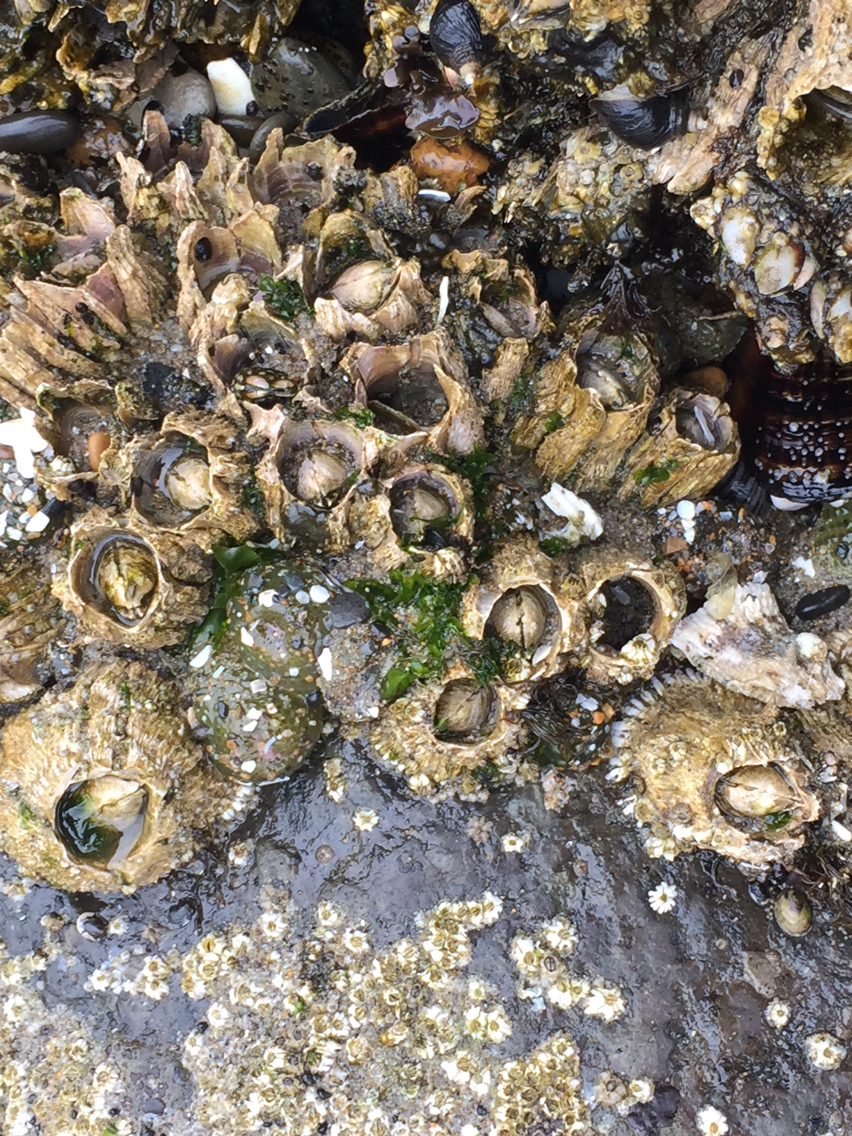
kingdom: Animalia
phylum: Arthropoda
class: Maxillopoda
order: Sessilia
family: Archaeobalanidae
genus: Semibalanus
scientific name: Semibalanus cariosus
